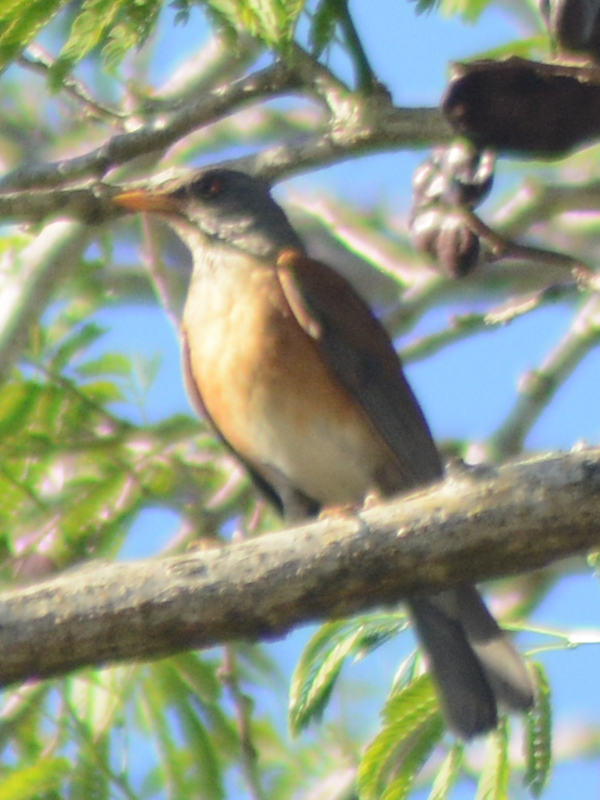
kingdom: Animalia
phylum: Chordata
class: Aves
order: Passeriformes
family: Turdidae
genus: Turdus
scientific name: Turdus rufopalliatus
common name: Rufous-backed robin
